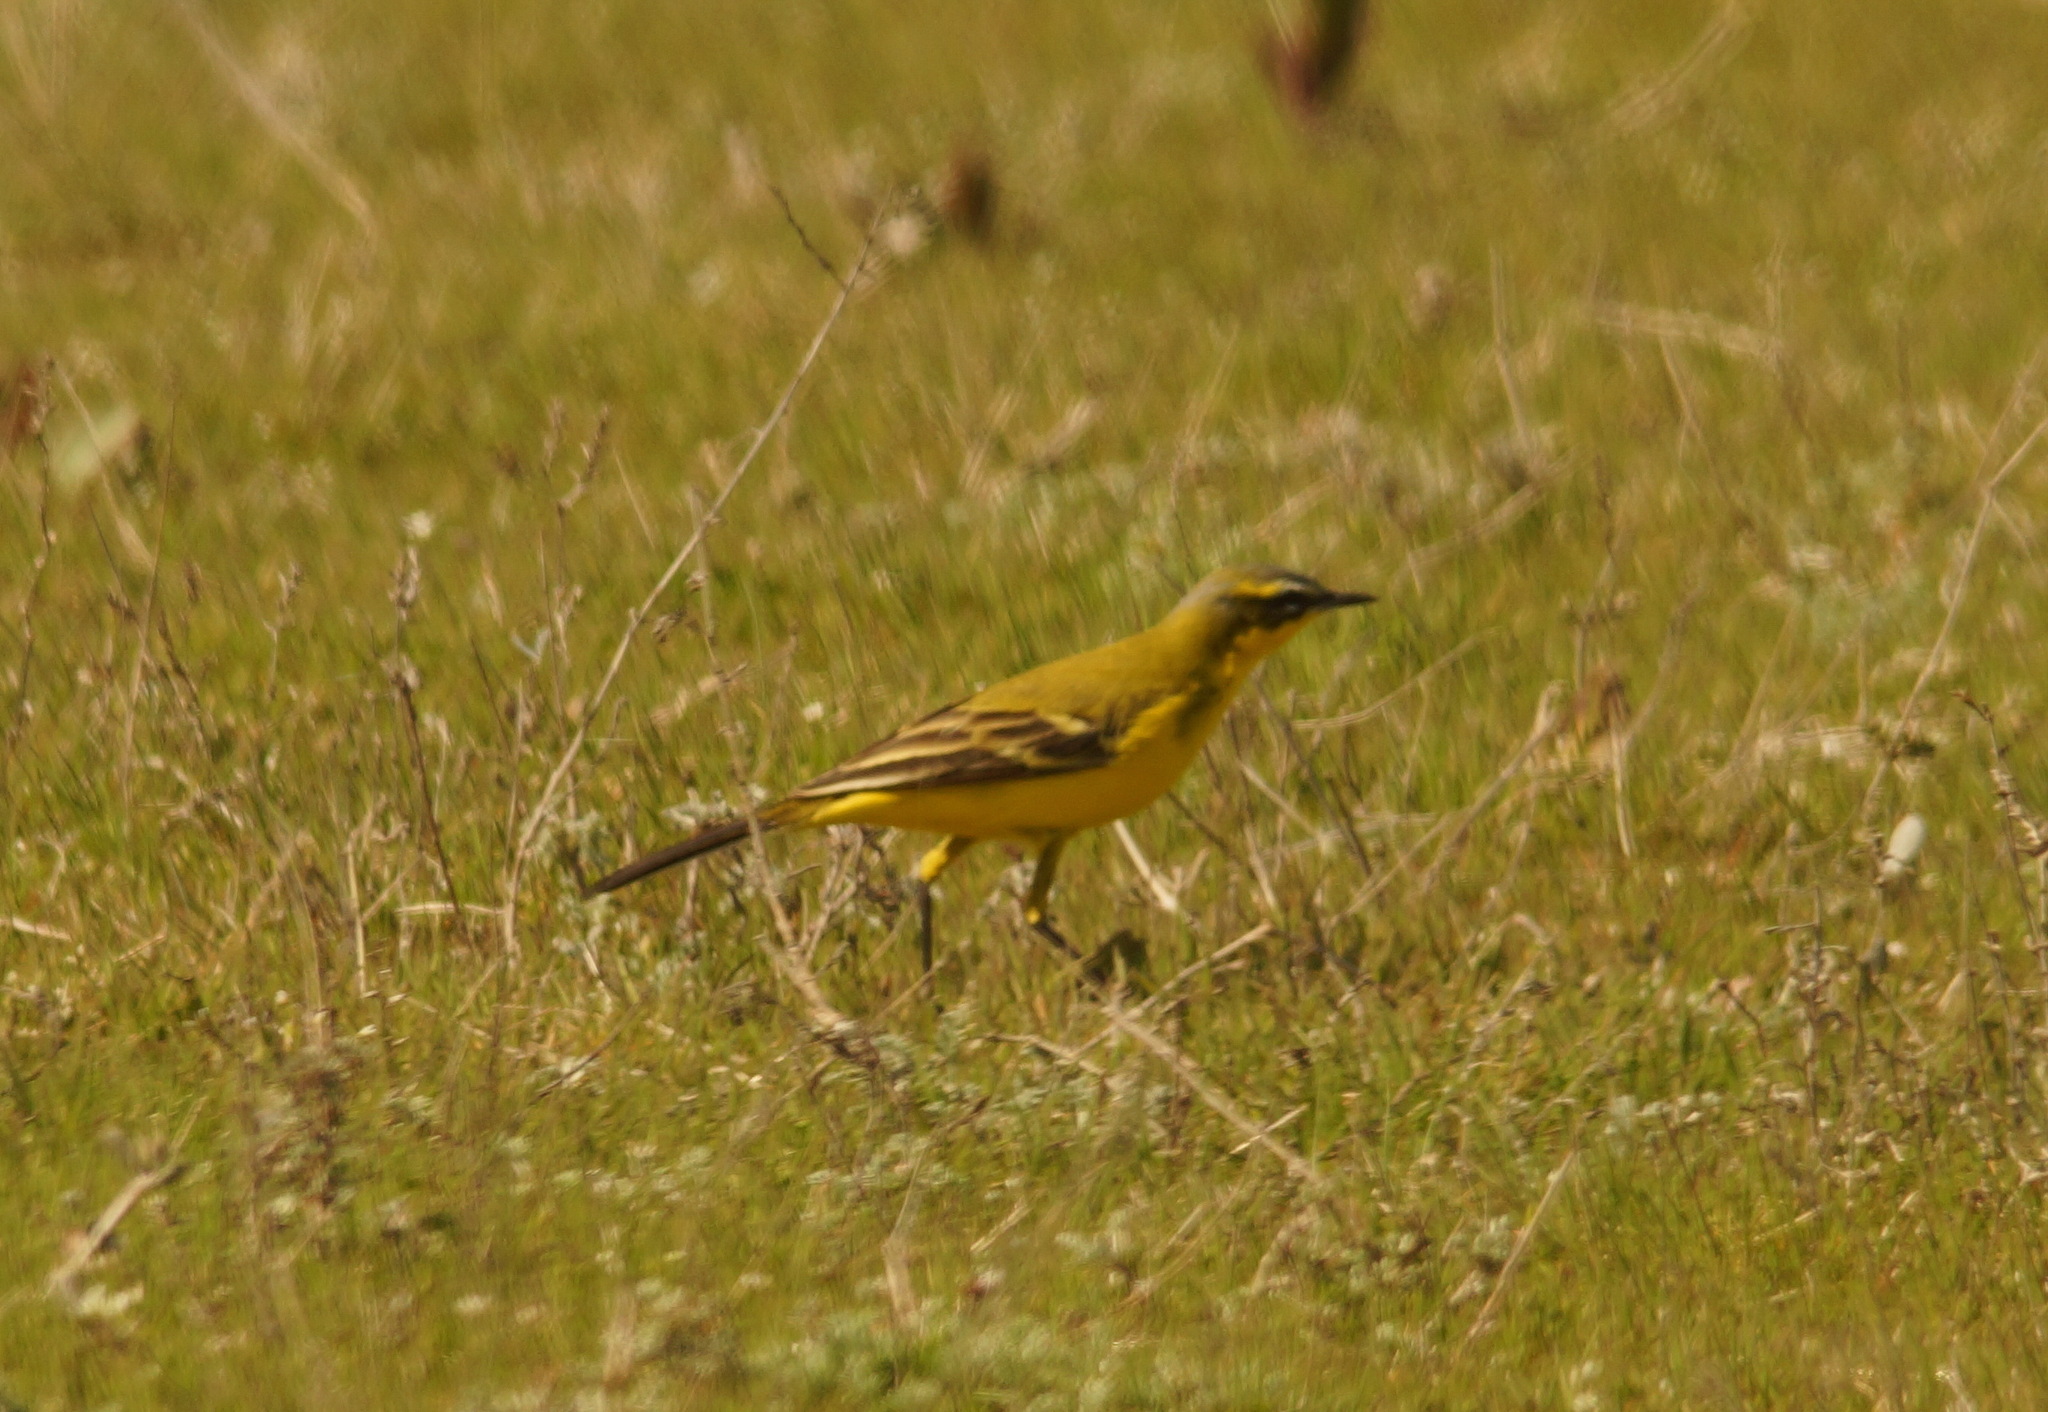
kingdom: Animalia
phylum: Chordata
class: Aves
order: Passeriformes
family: Motacillidae
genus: Motacilla
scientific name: Motacilla flava
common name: Western yellow wagtail
